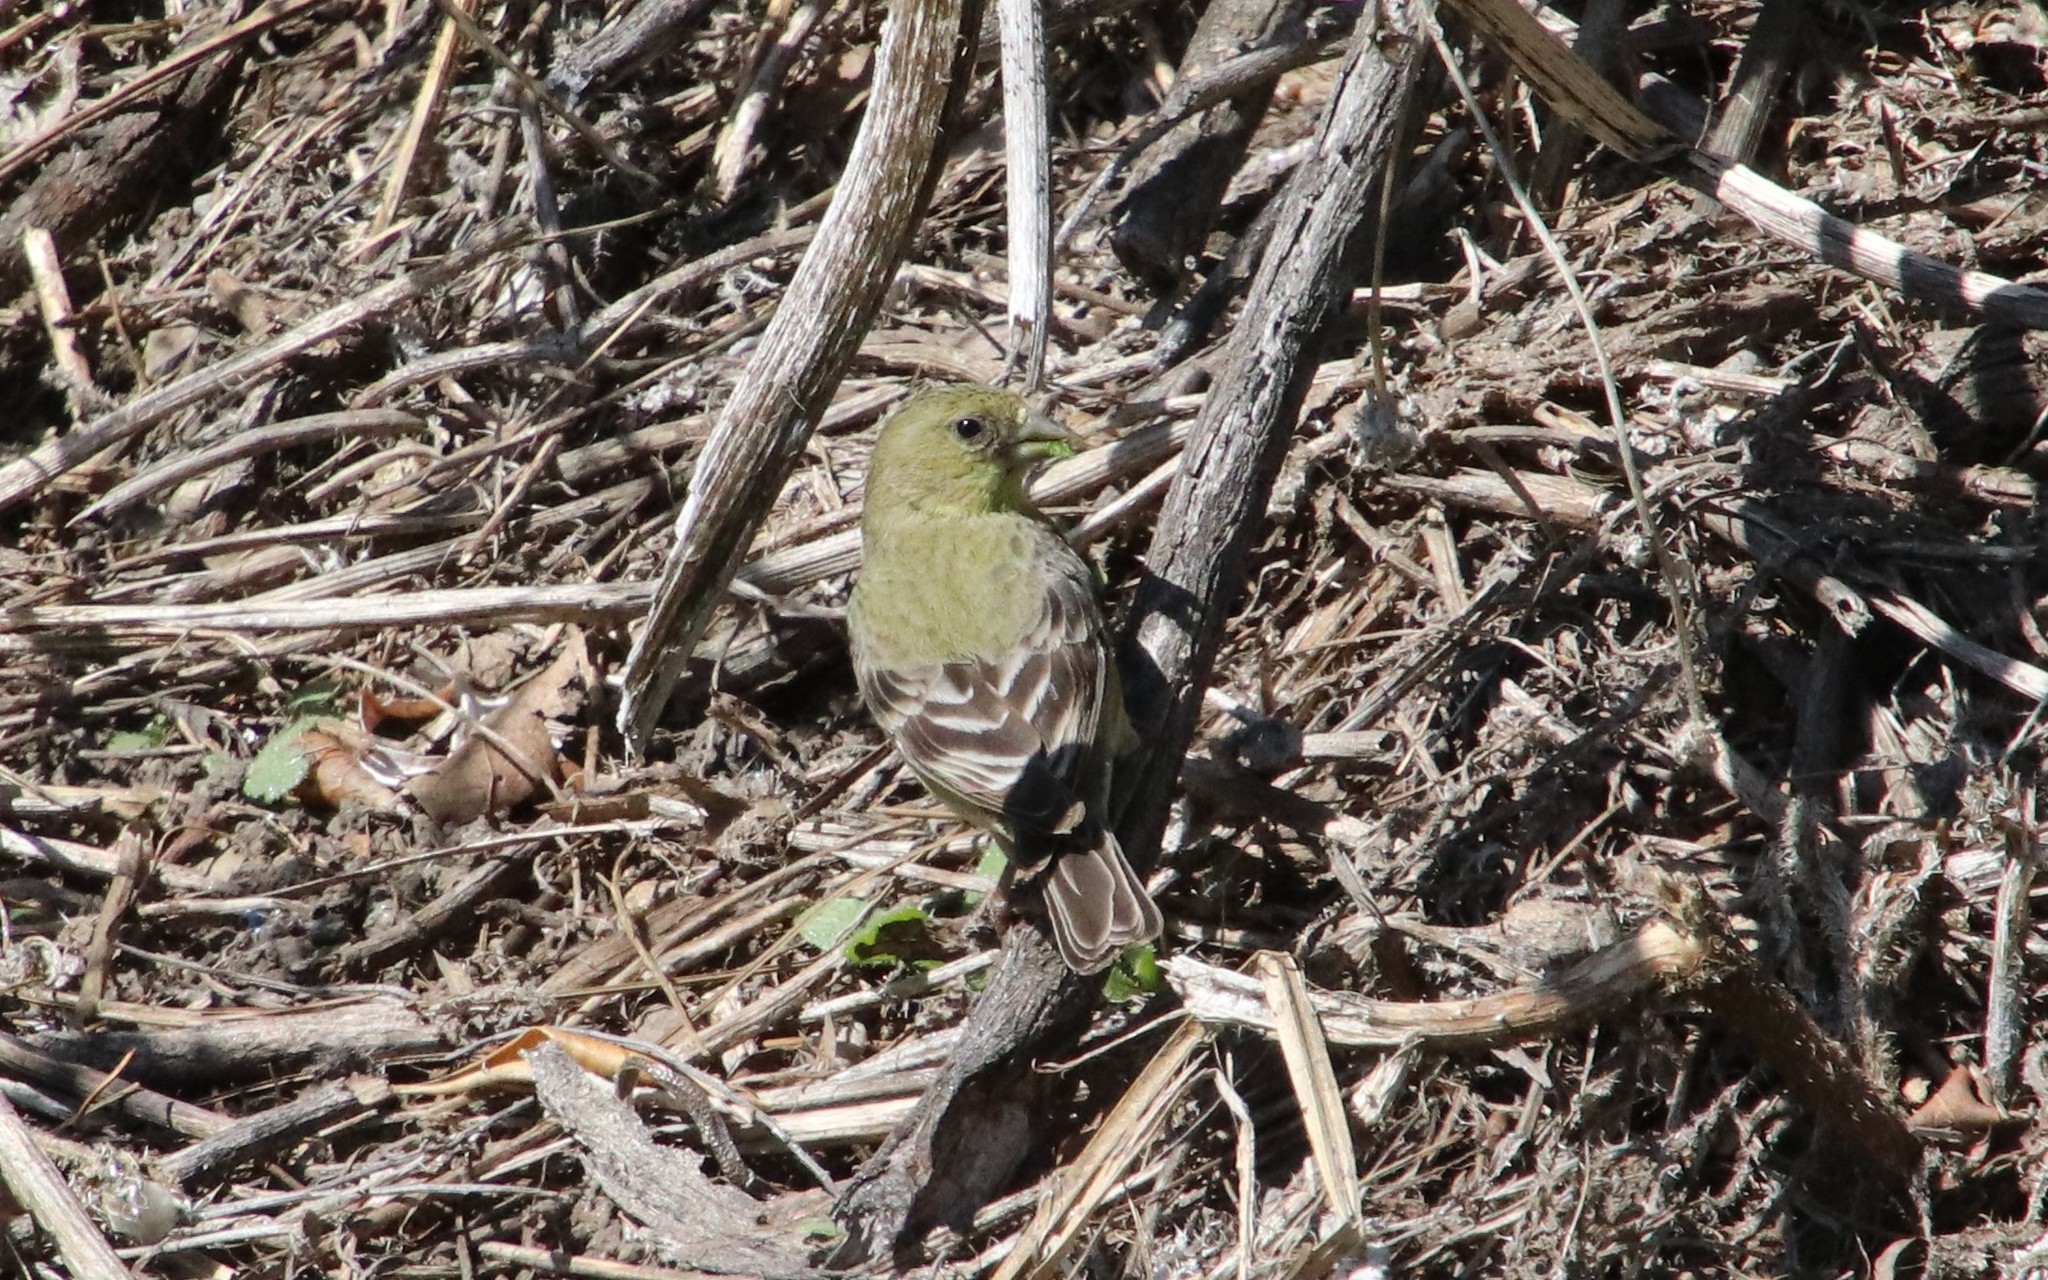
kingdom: Animalia
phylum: Chordata
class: Aves
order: Passeriformes
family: Fringillidae
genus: Spinus
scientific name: Spinus psaltria
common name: Lesser goldfinch
